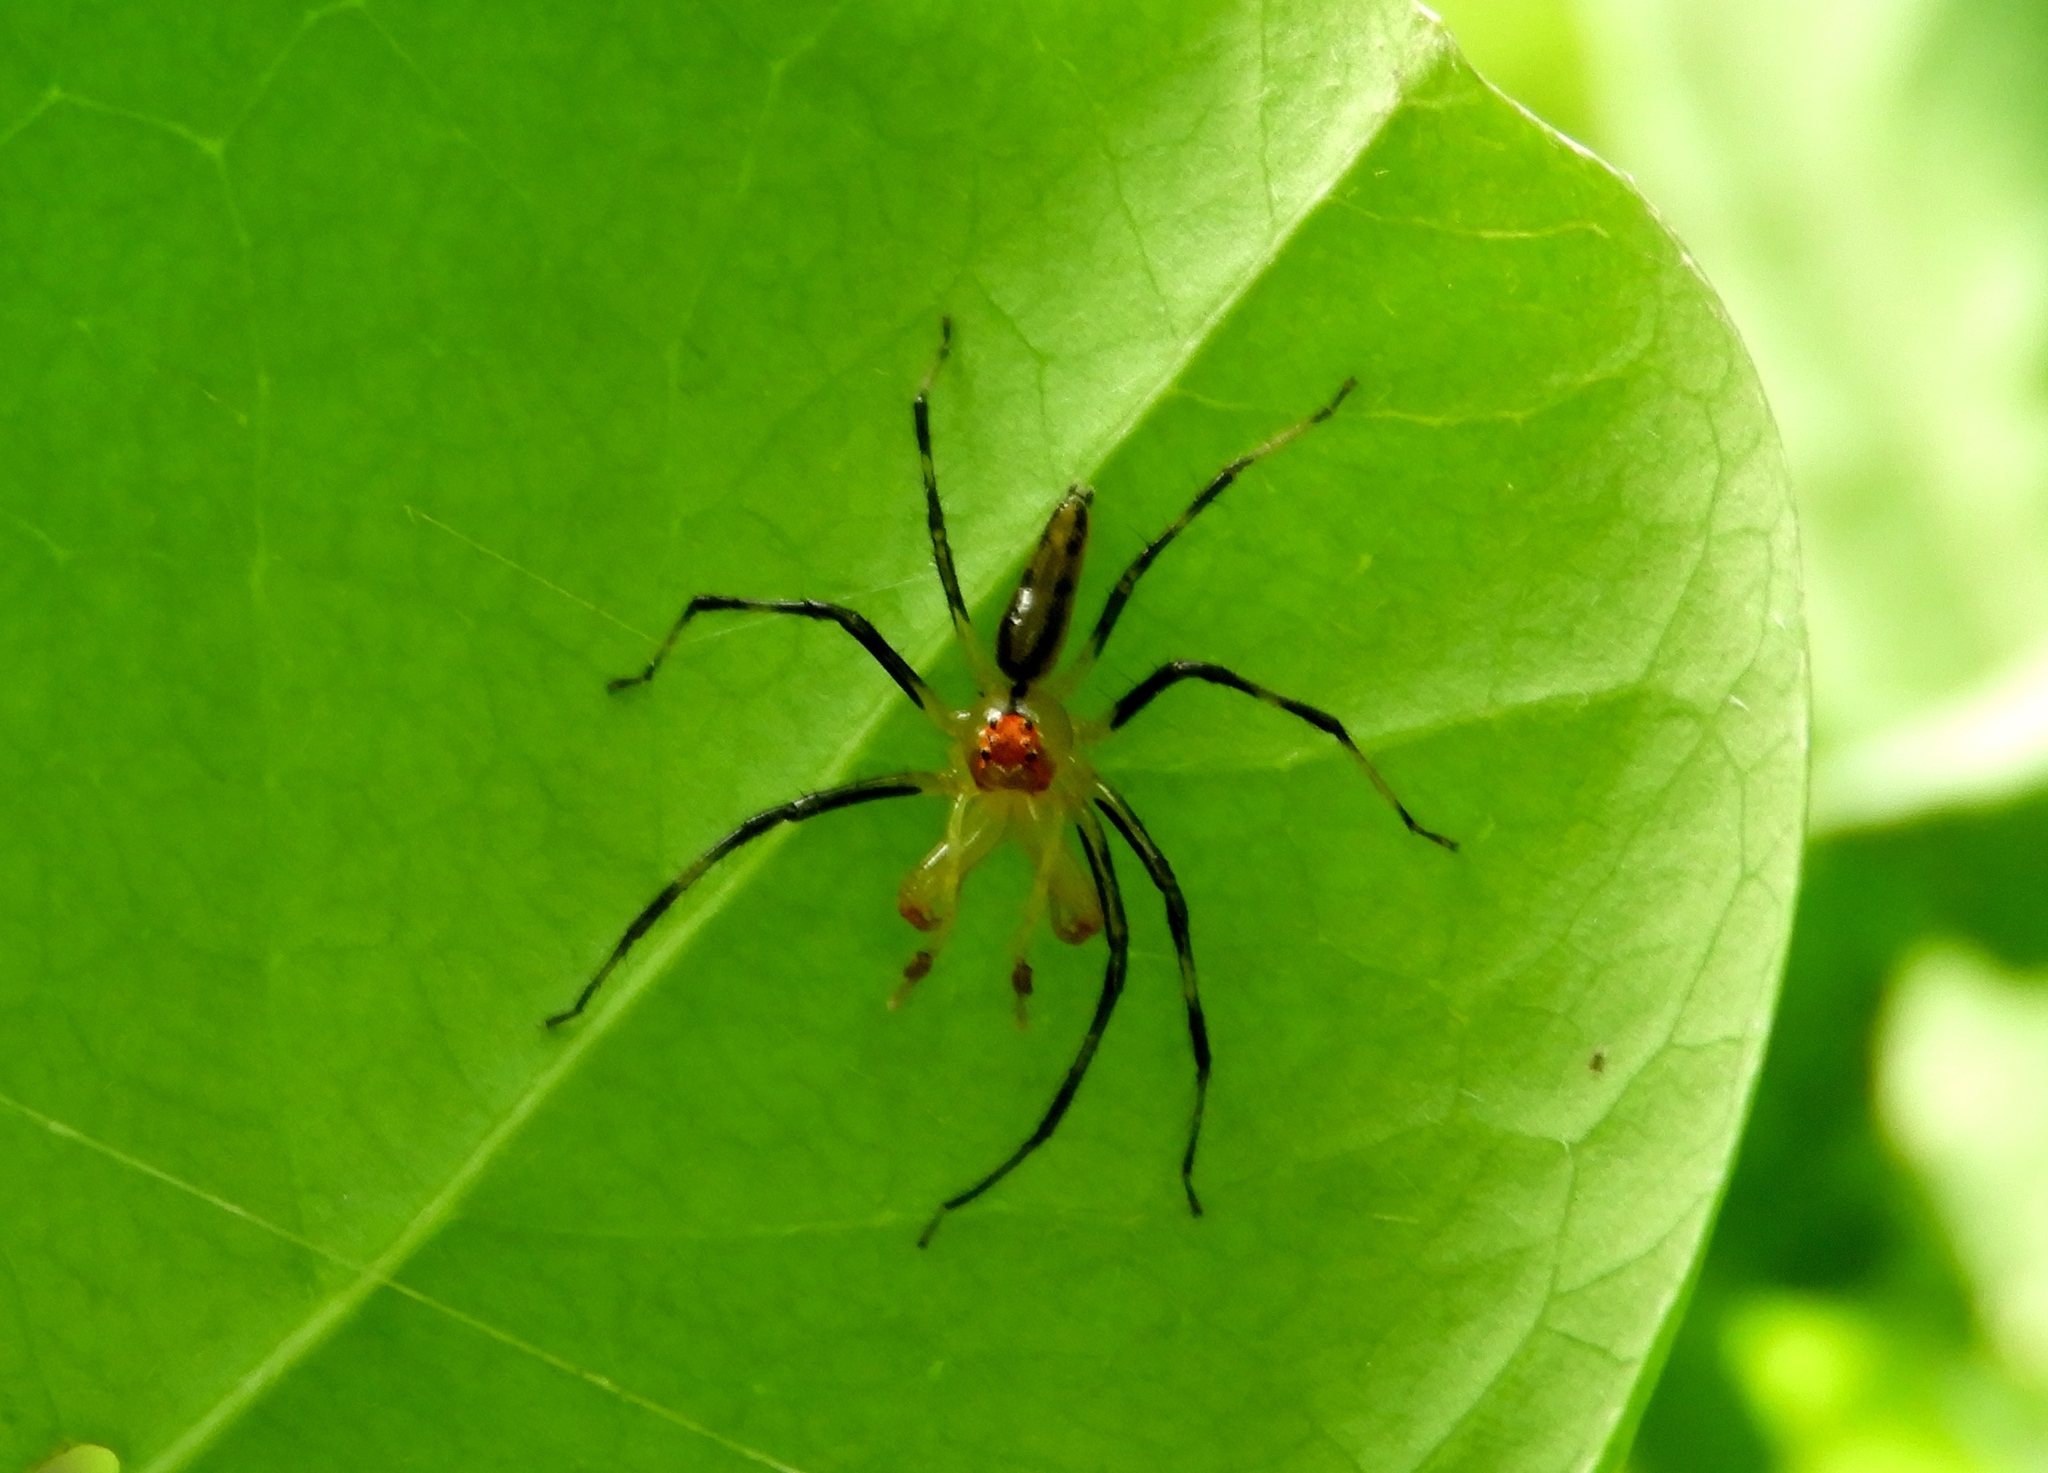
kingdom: Animalia
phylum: Arthropoda
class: Arachnida
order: Araneae
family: Salticidae
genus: Lyssomanes
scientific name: Lyssomanes
